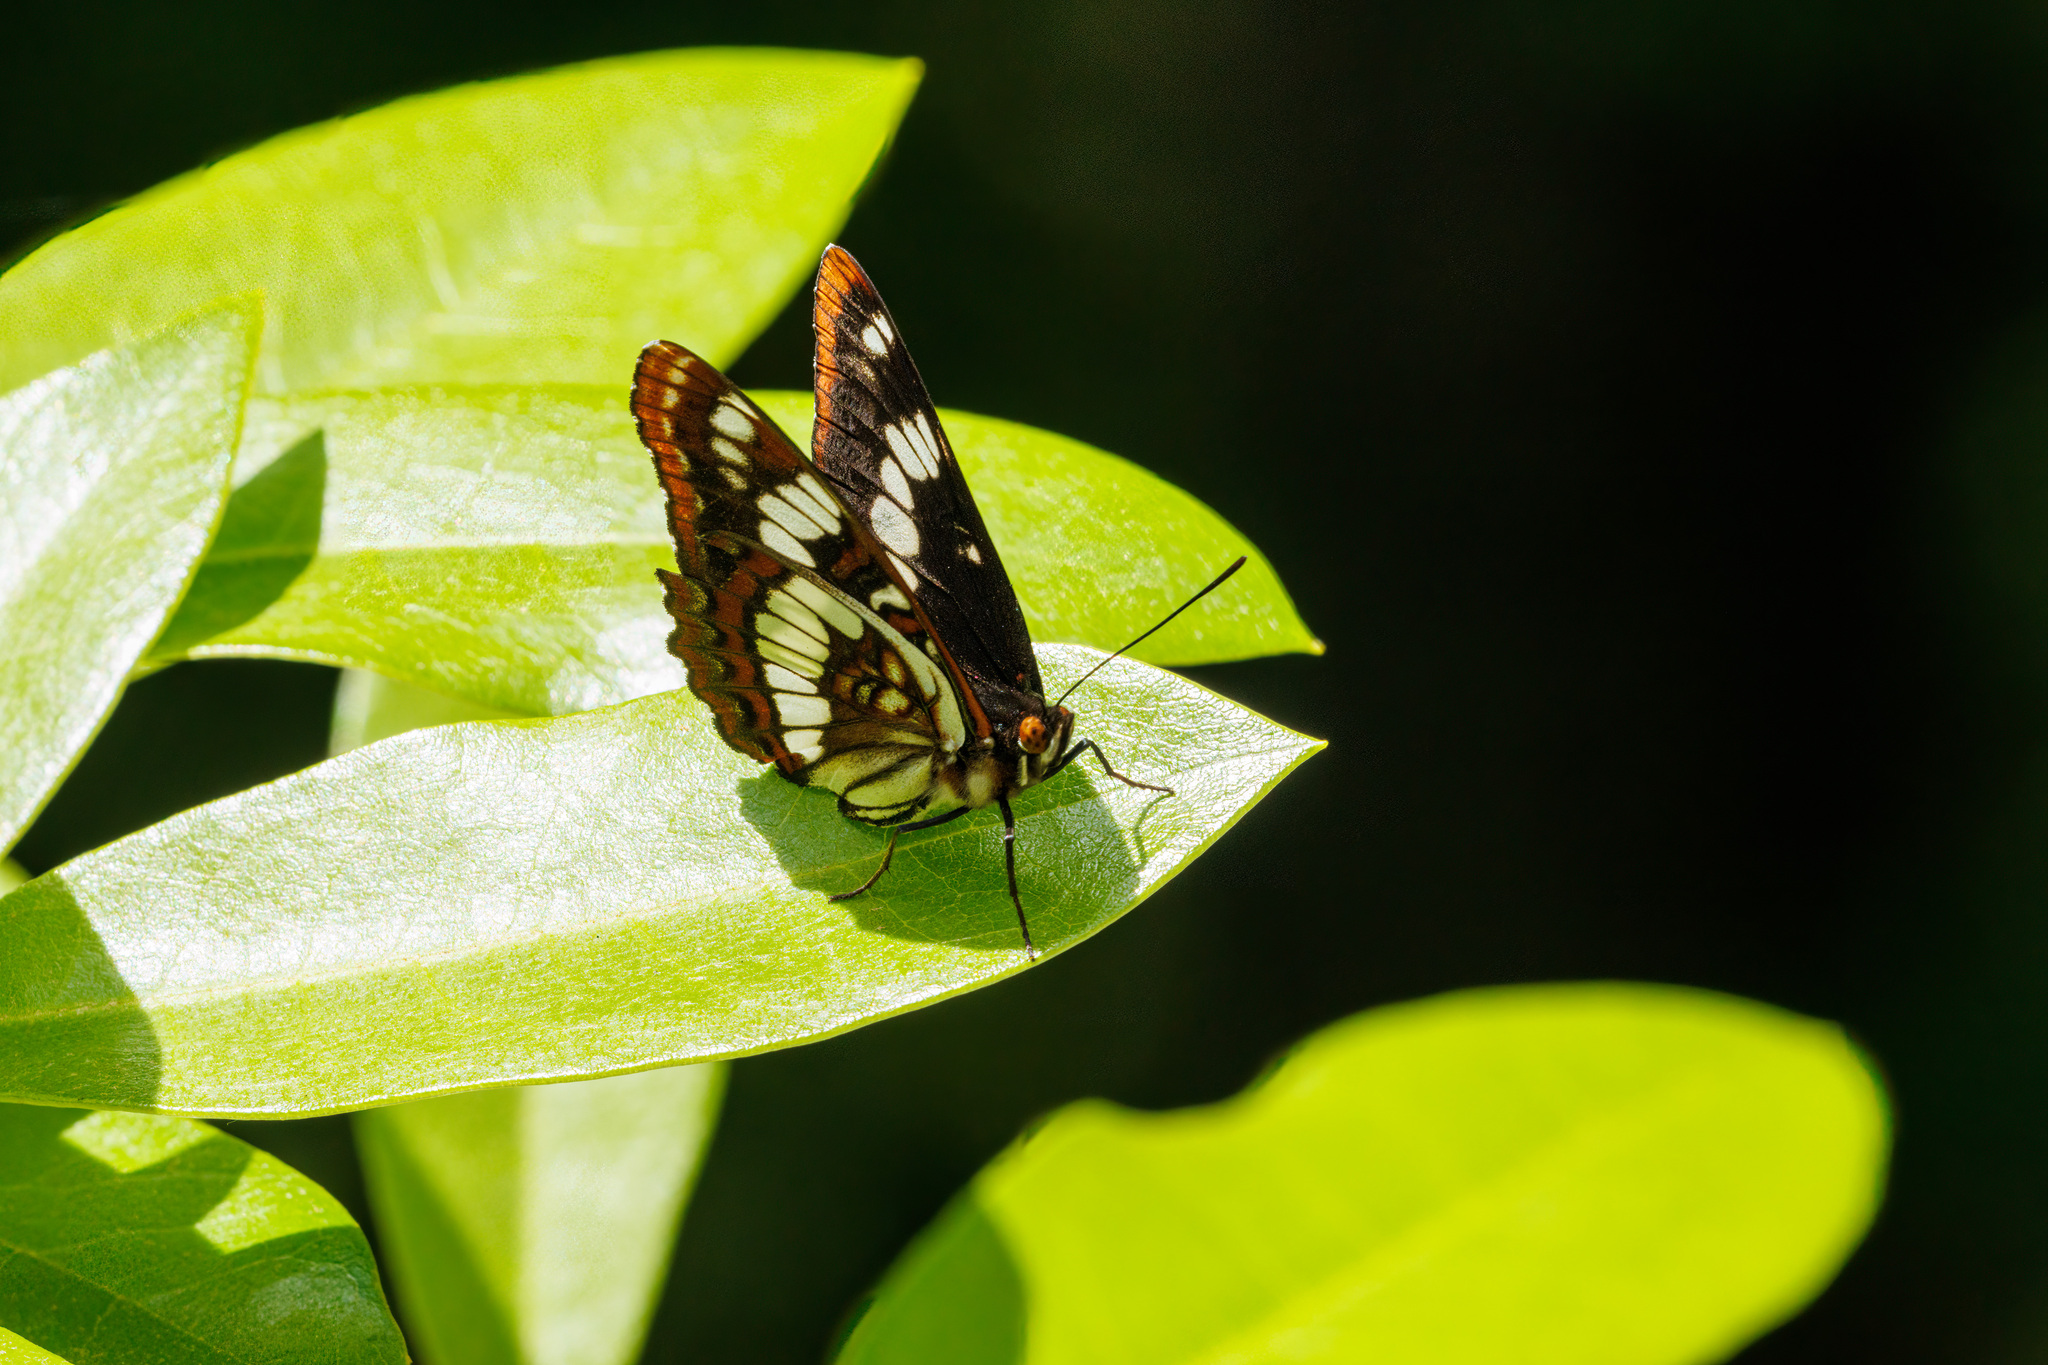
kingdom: Animalia
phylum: Arthropoda
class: Insecta
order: Lepidoptera
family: Nymphalidae
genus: Limenitis
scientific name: Limenitis lorquini
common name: Lorquin's admiral
